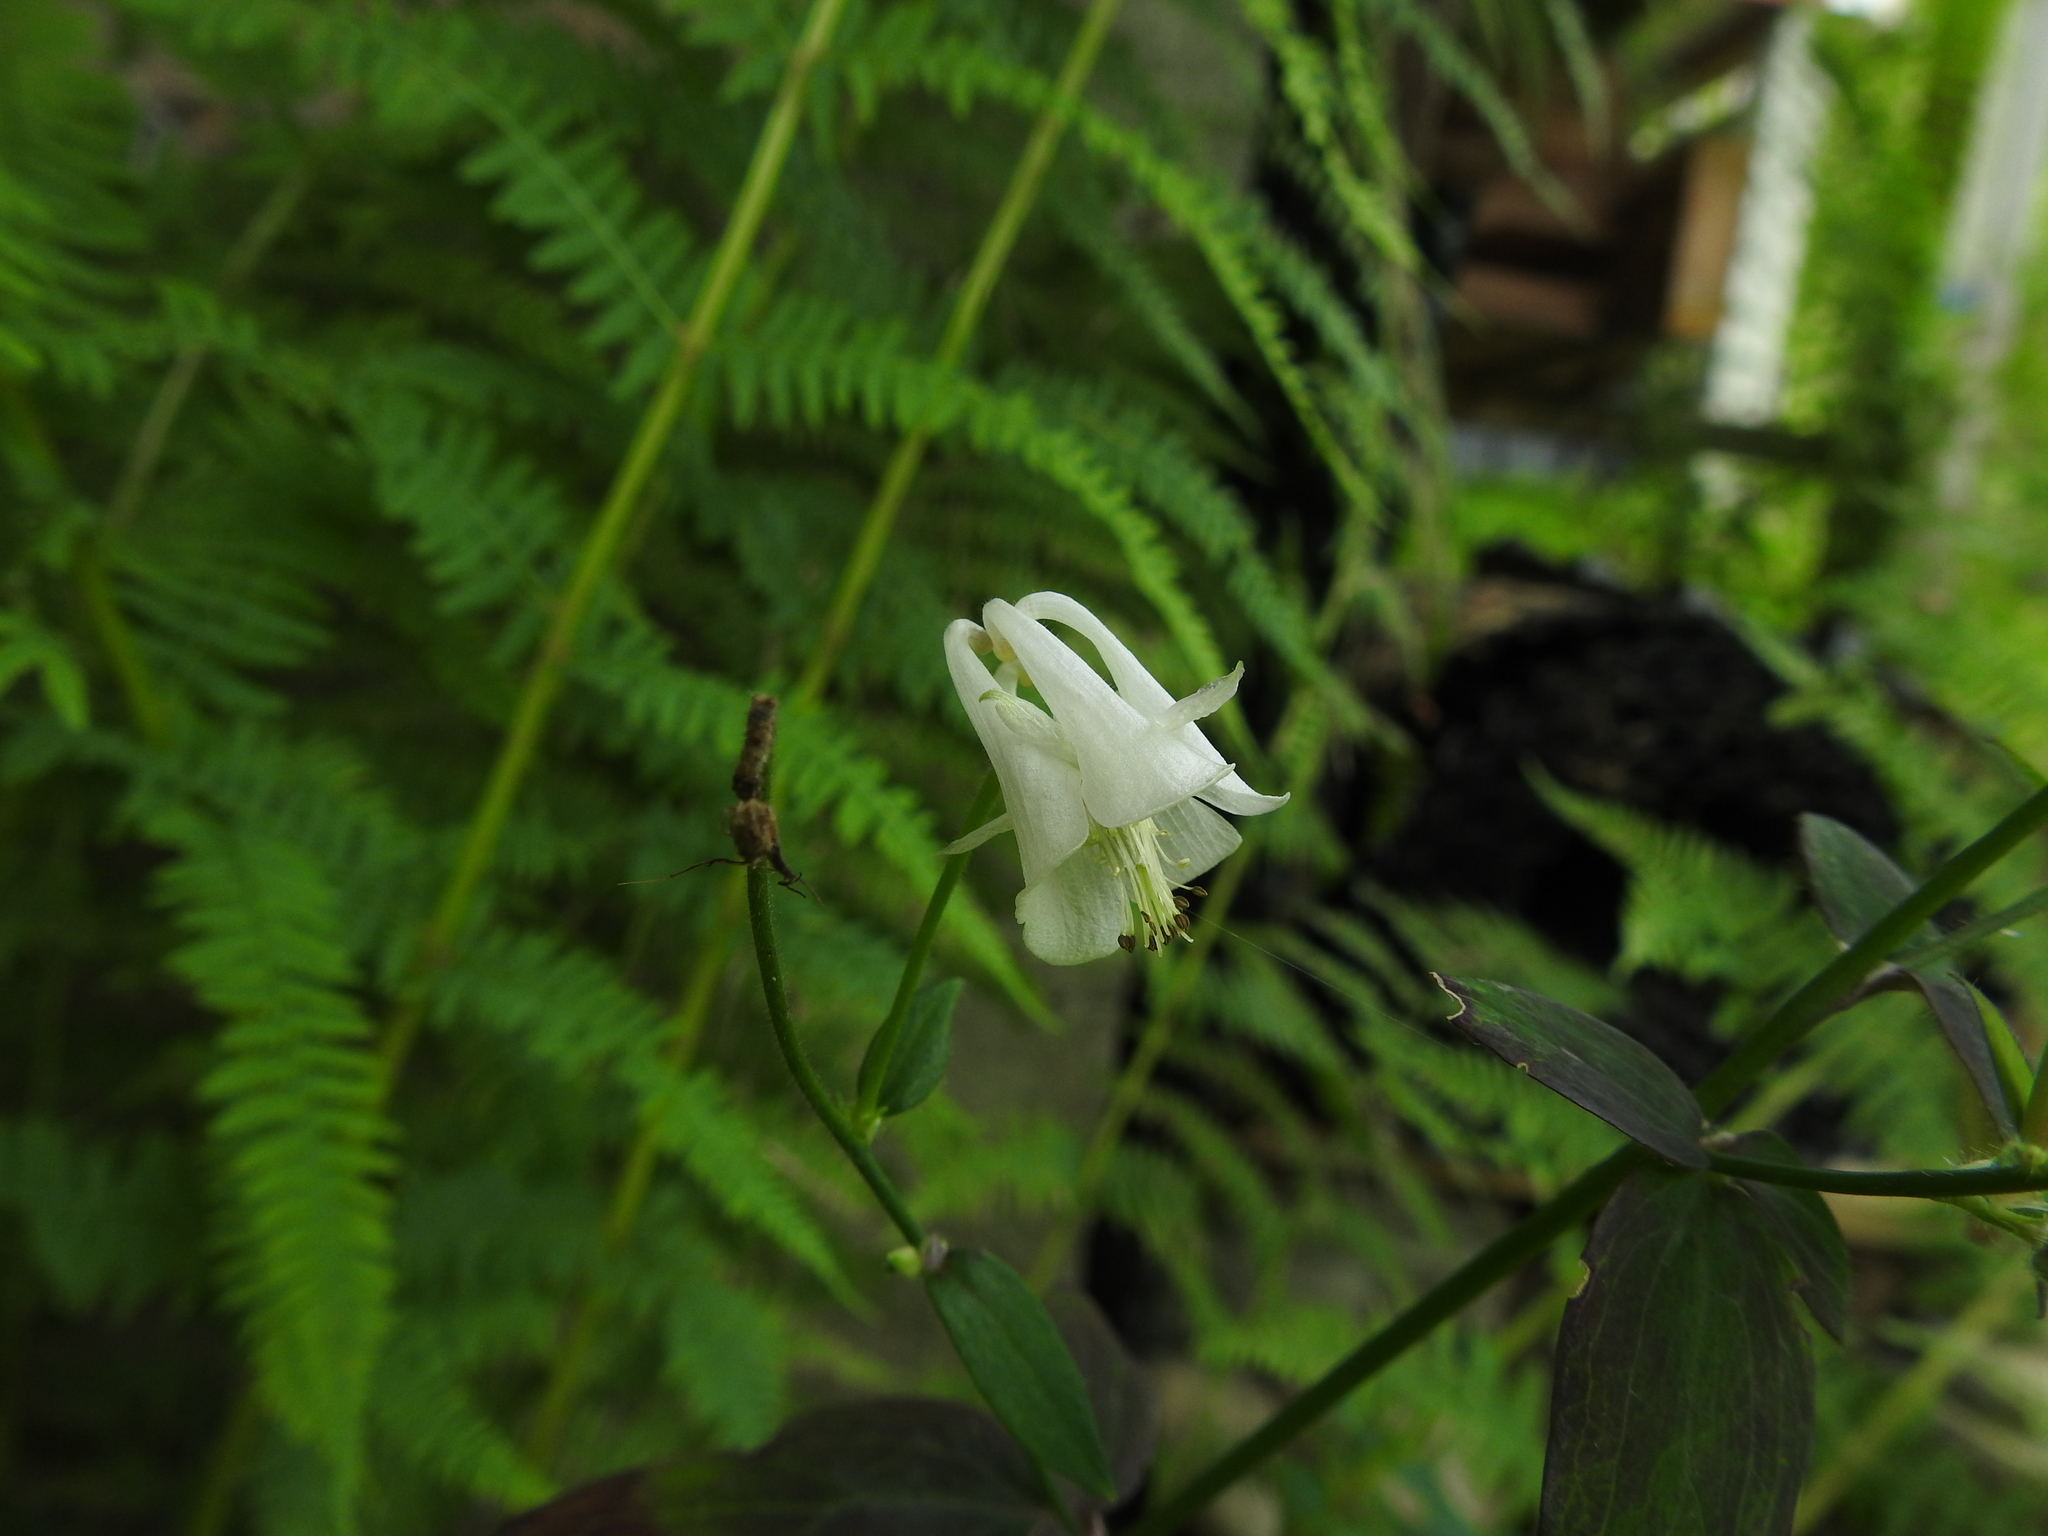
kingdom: Plantae
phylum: Tracheophyta
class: Magnoliopsida
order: Ranunculales
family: Ranunculaceae
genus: Aquilegia
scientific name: Aquilegia vulgaris
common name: Columbine
